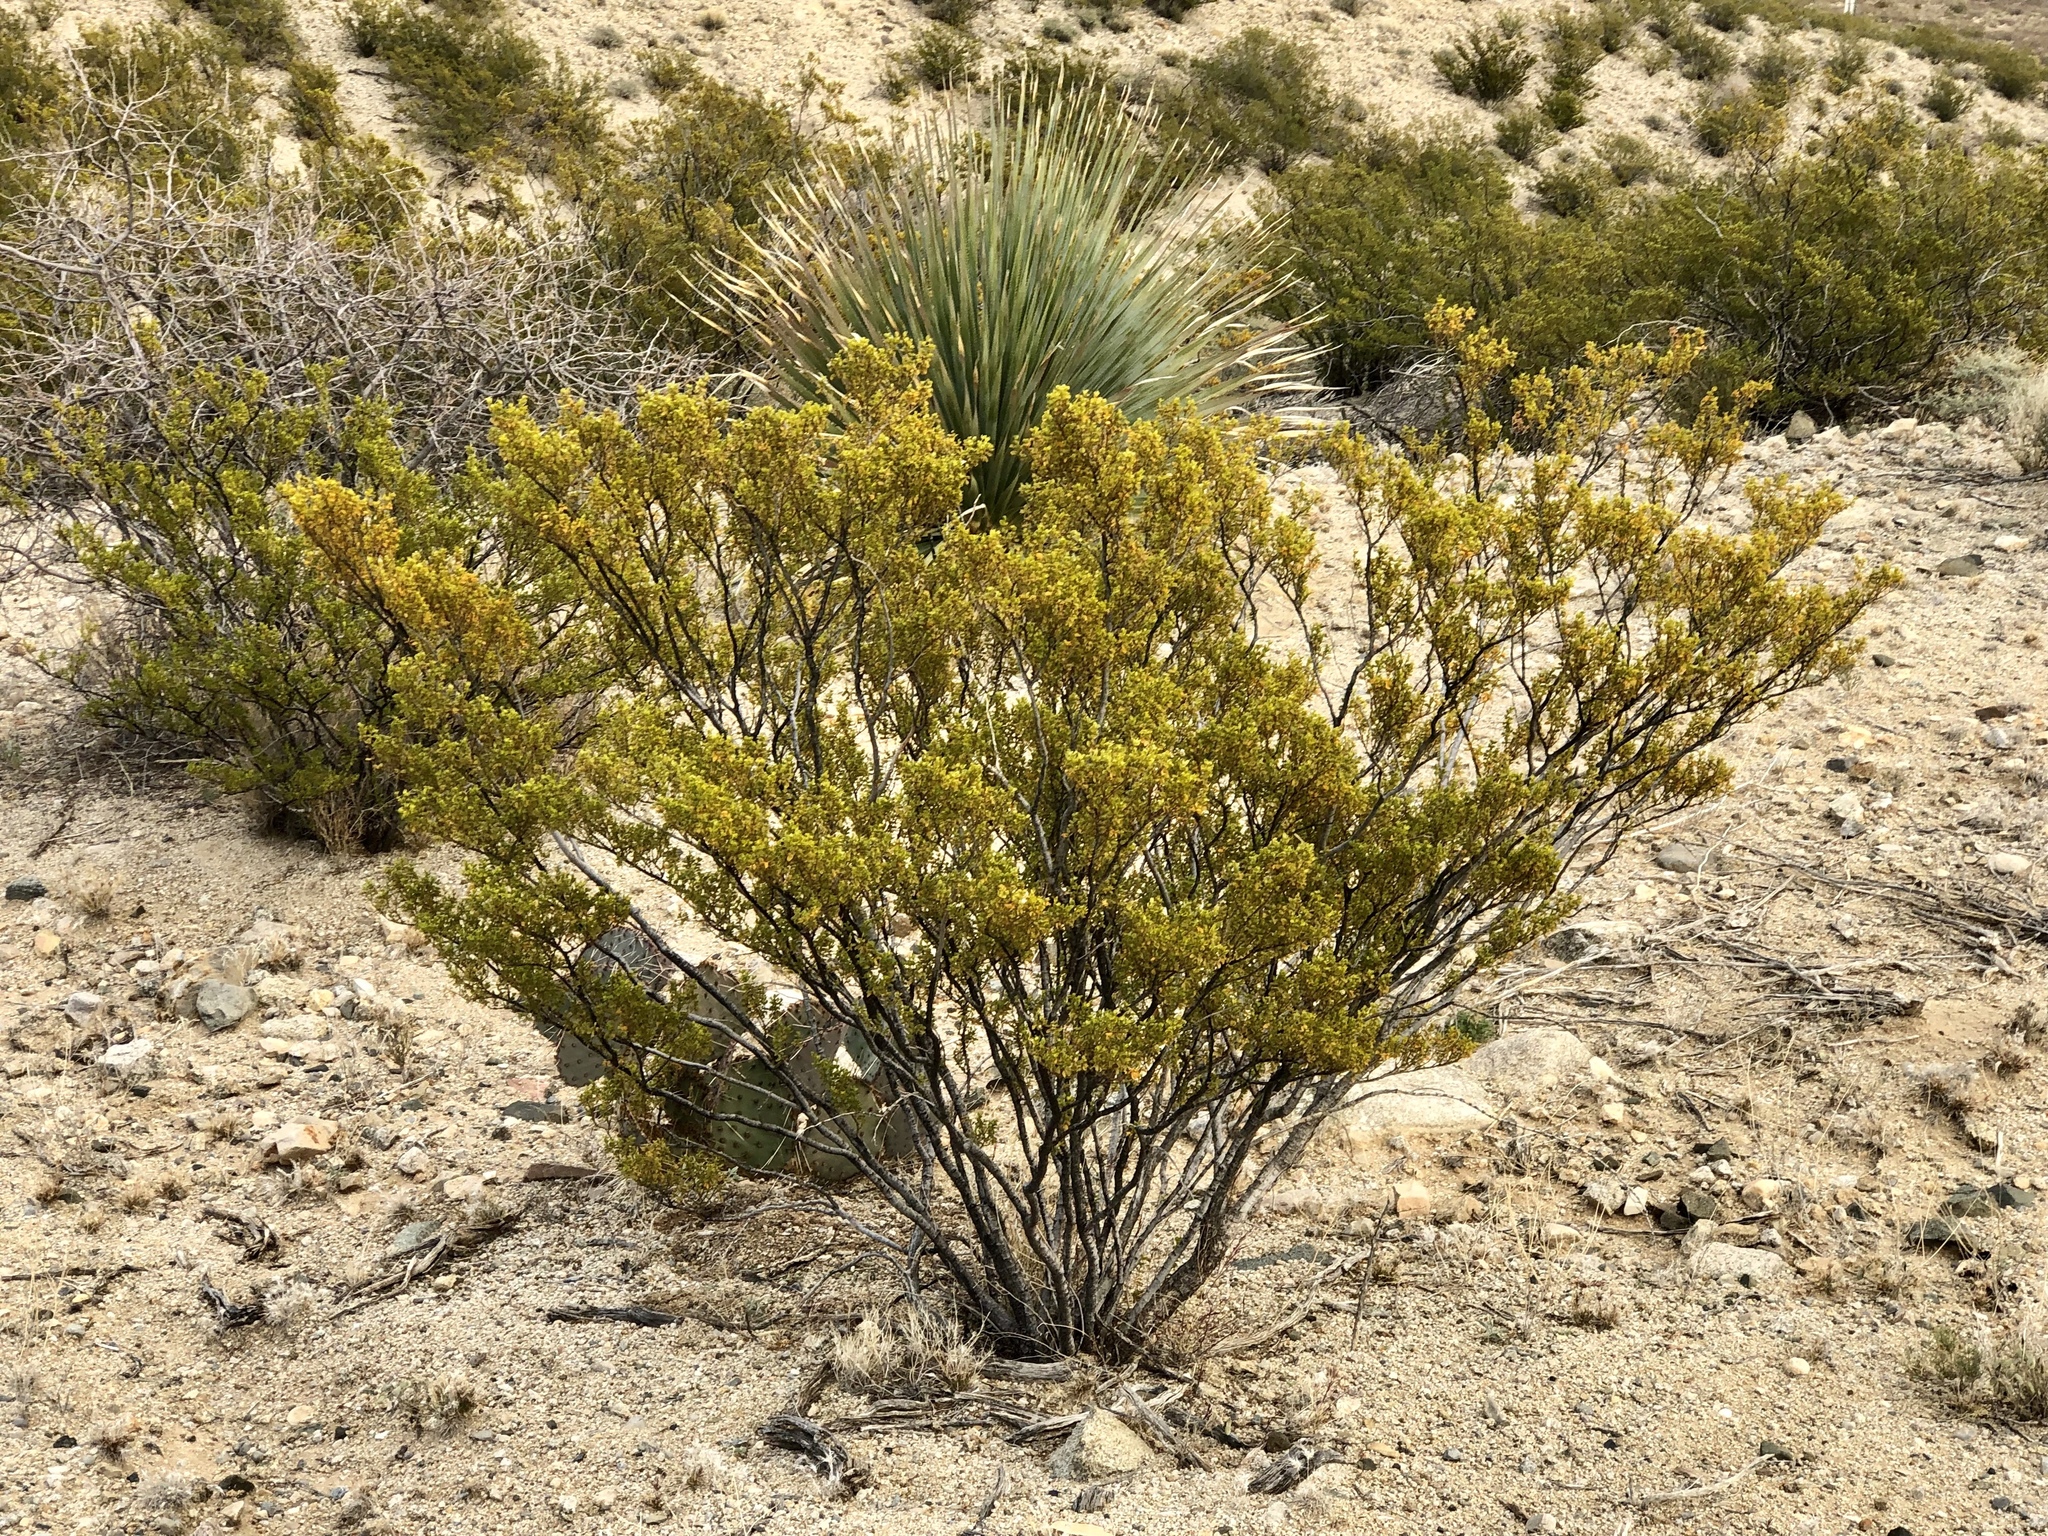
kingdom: Plantae
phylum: Tracheophyta
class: Magnoliopsida
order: Zygophyllales
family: Zygophyllaceae
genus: Larrea
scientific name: Larrea tridentata
